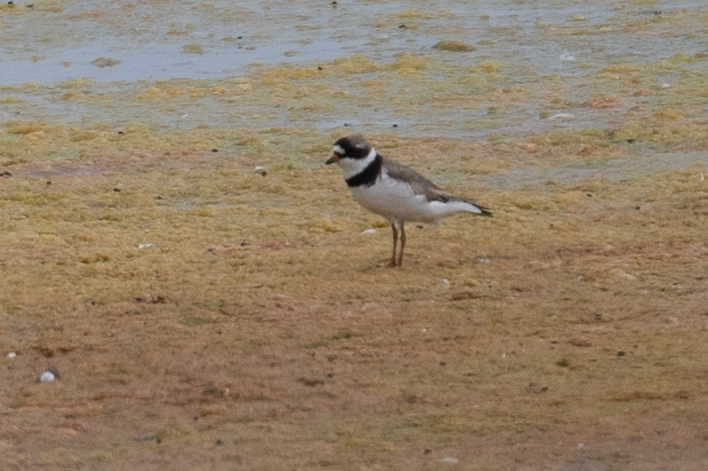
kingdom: Animalia
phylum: Chordata
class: Aves
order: Charadriiformes
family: Charadriidae
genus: Charadrius
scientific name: Charadrius semipalmatus
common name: Semipalmated plover
